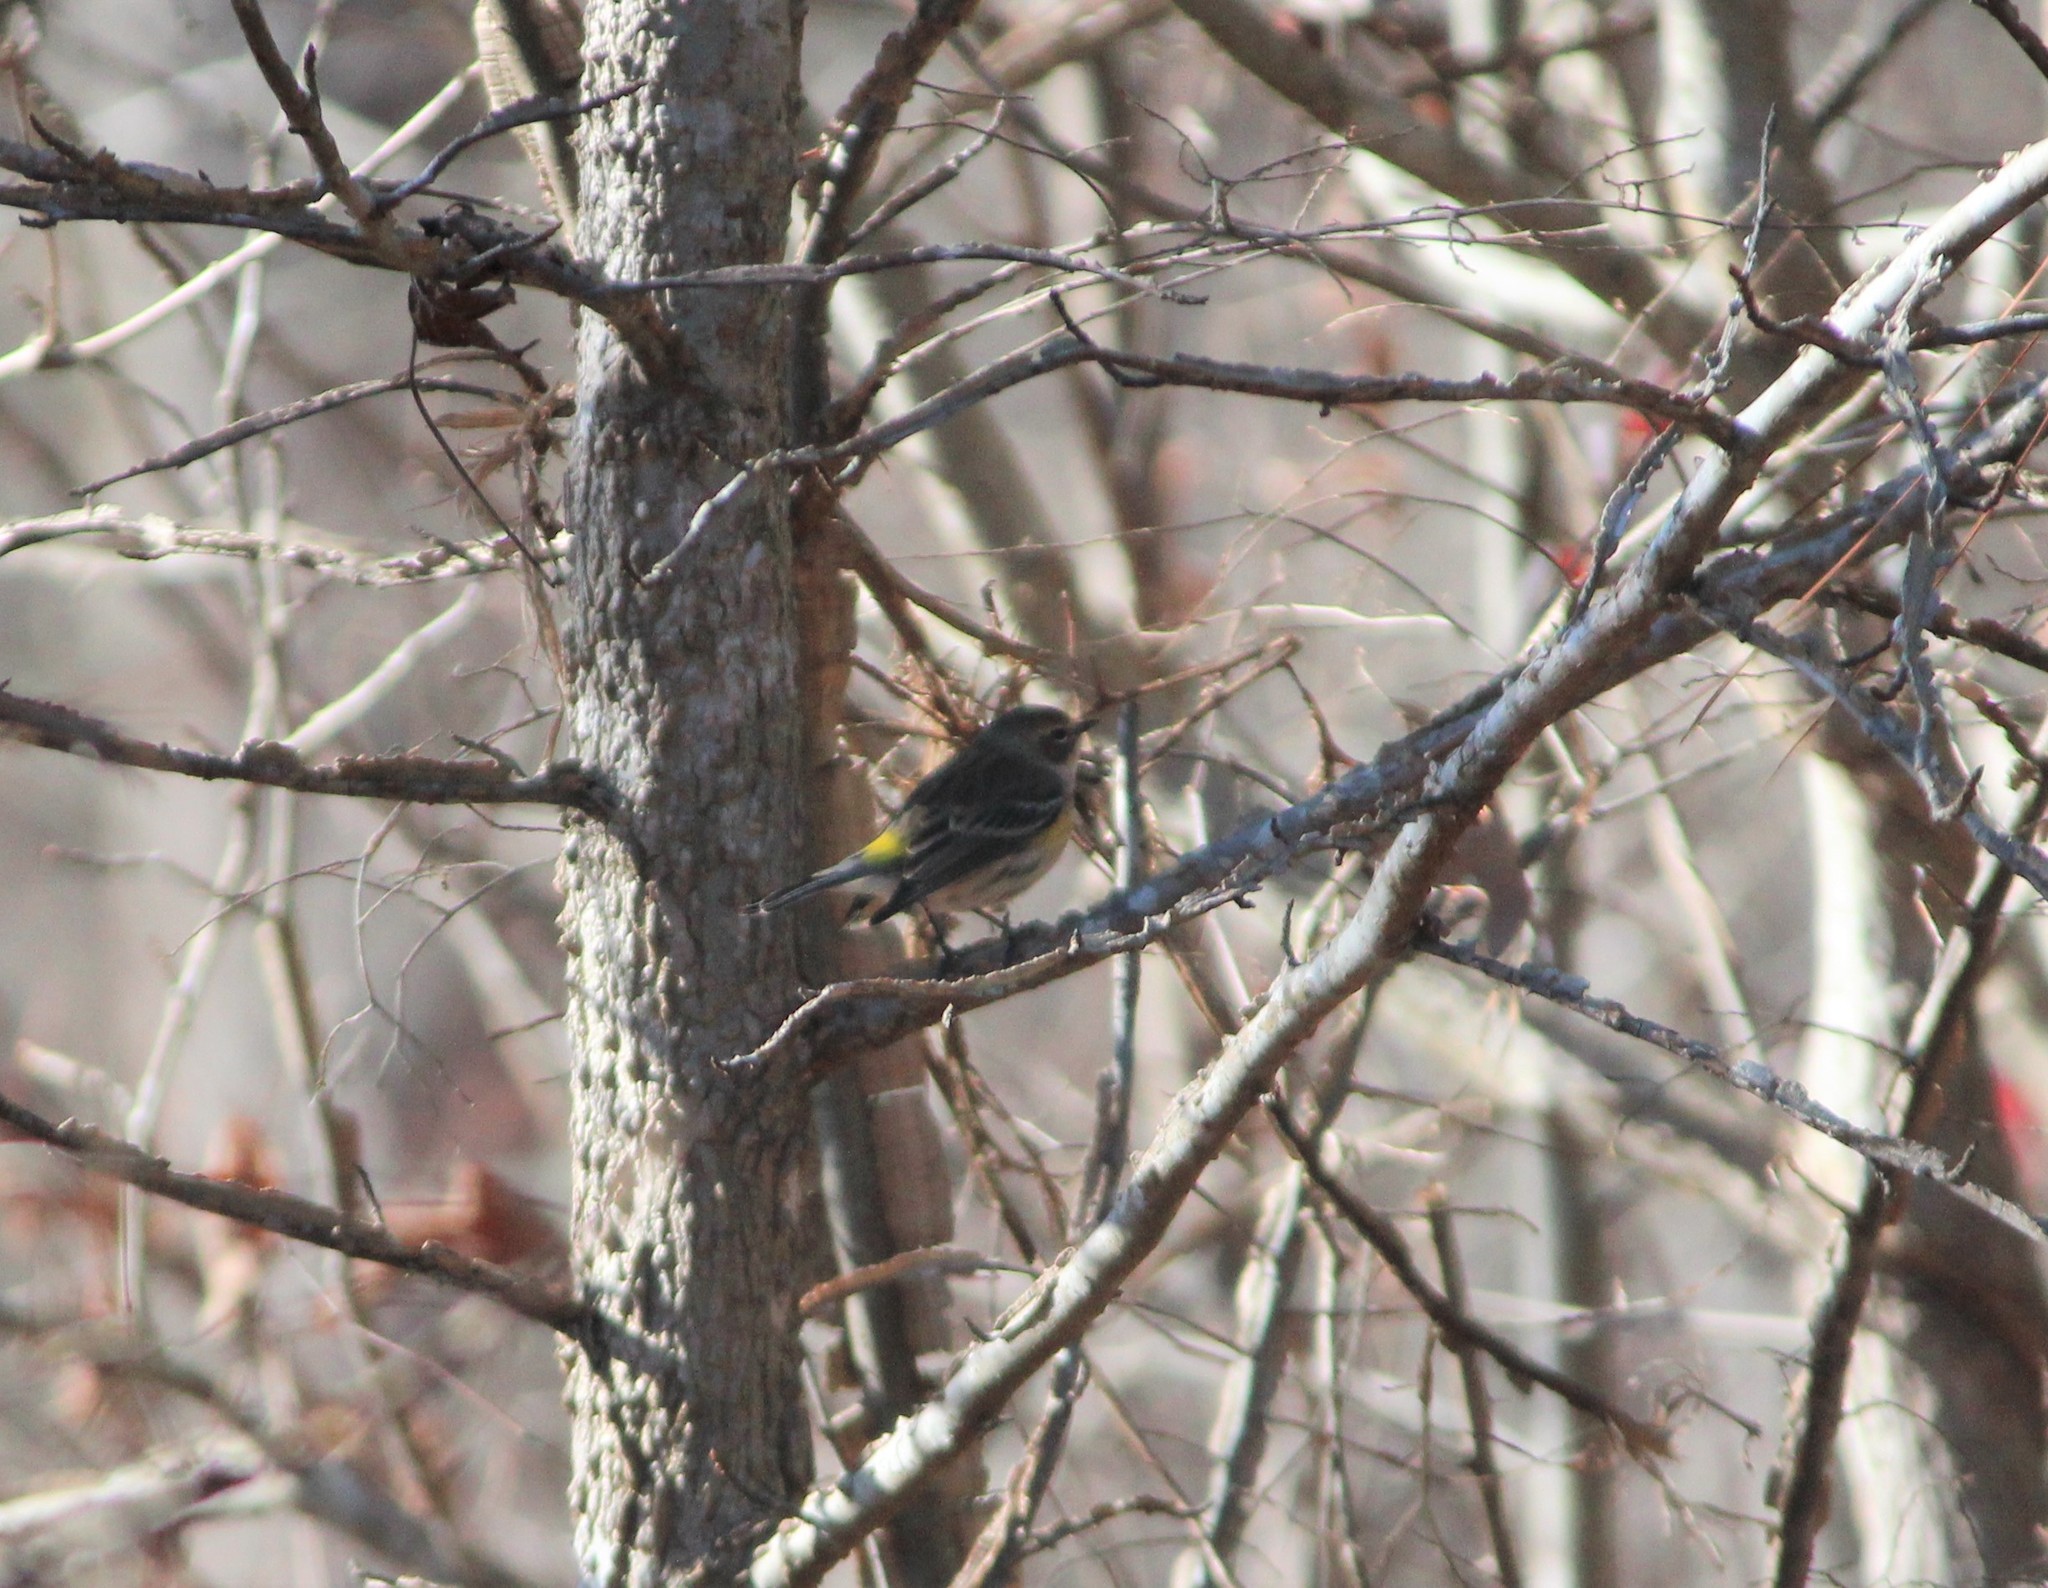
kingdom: Animalia
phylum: Chordata
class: Aves
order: Passeriformes
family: Parulidae
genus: Setophaga
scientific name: Setophaga coronata
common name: Myrtle warbler
